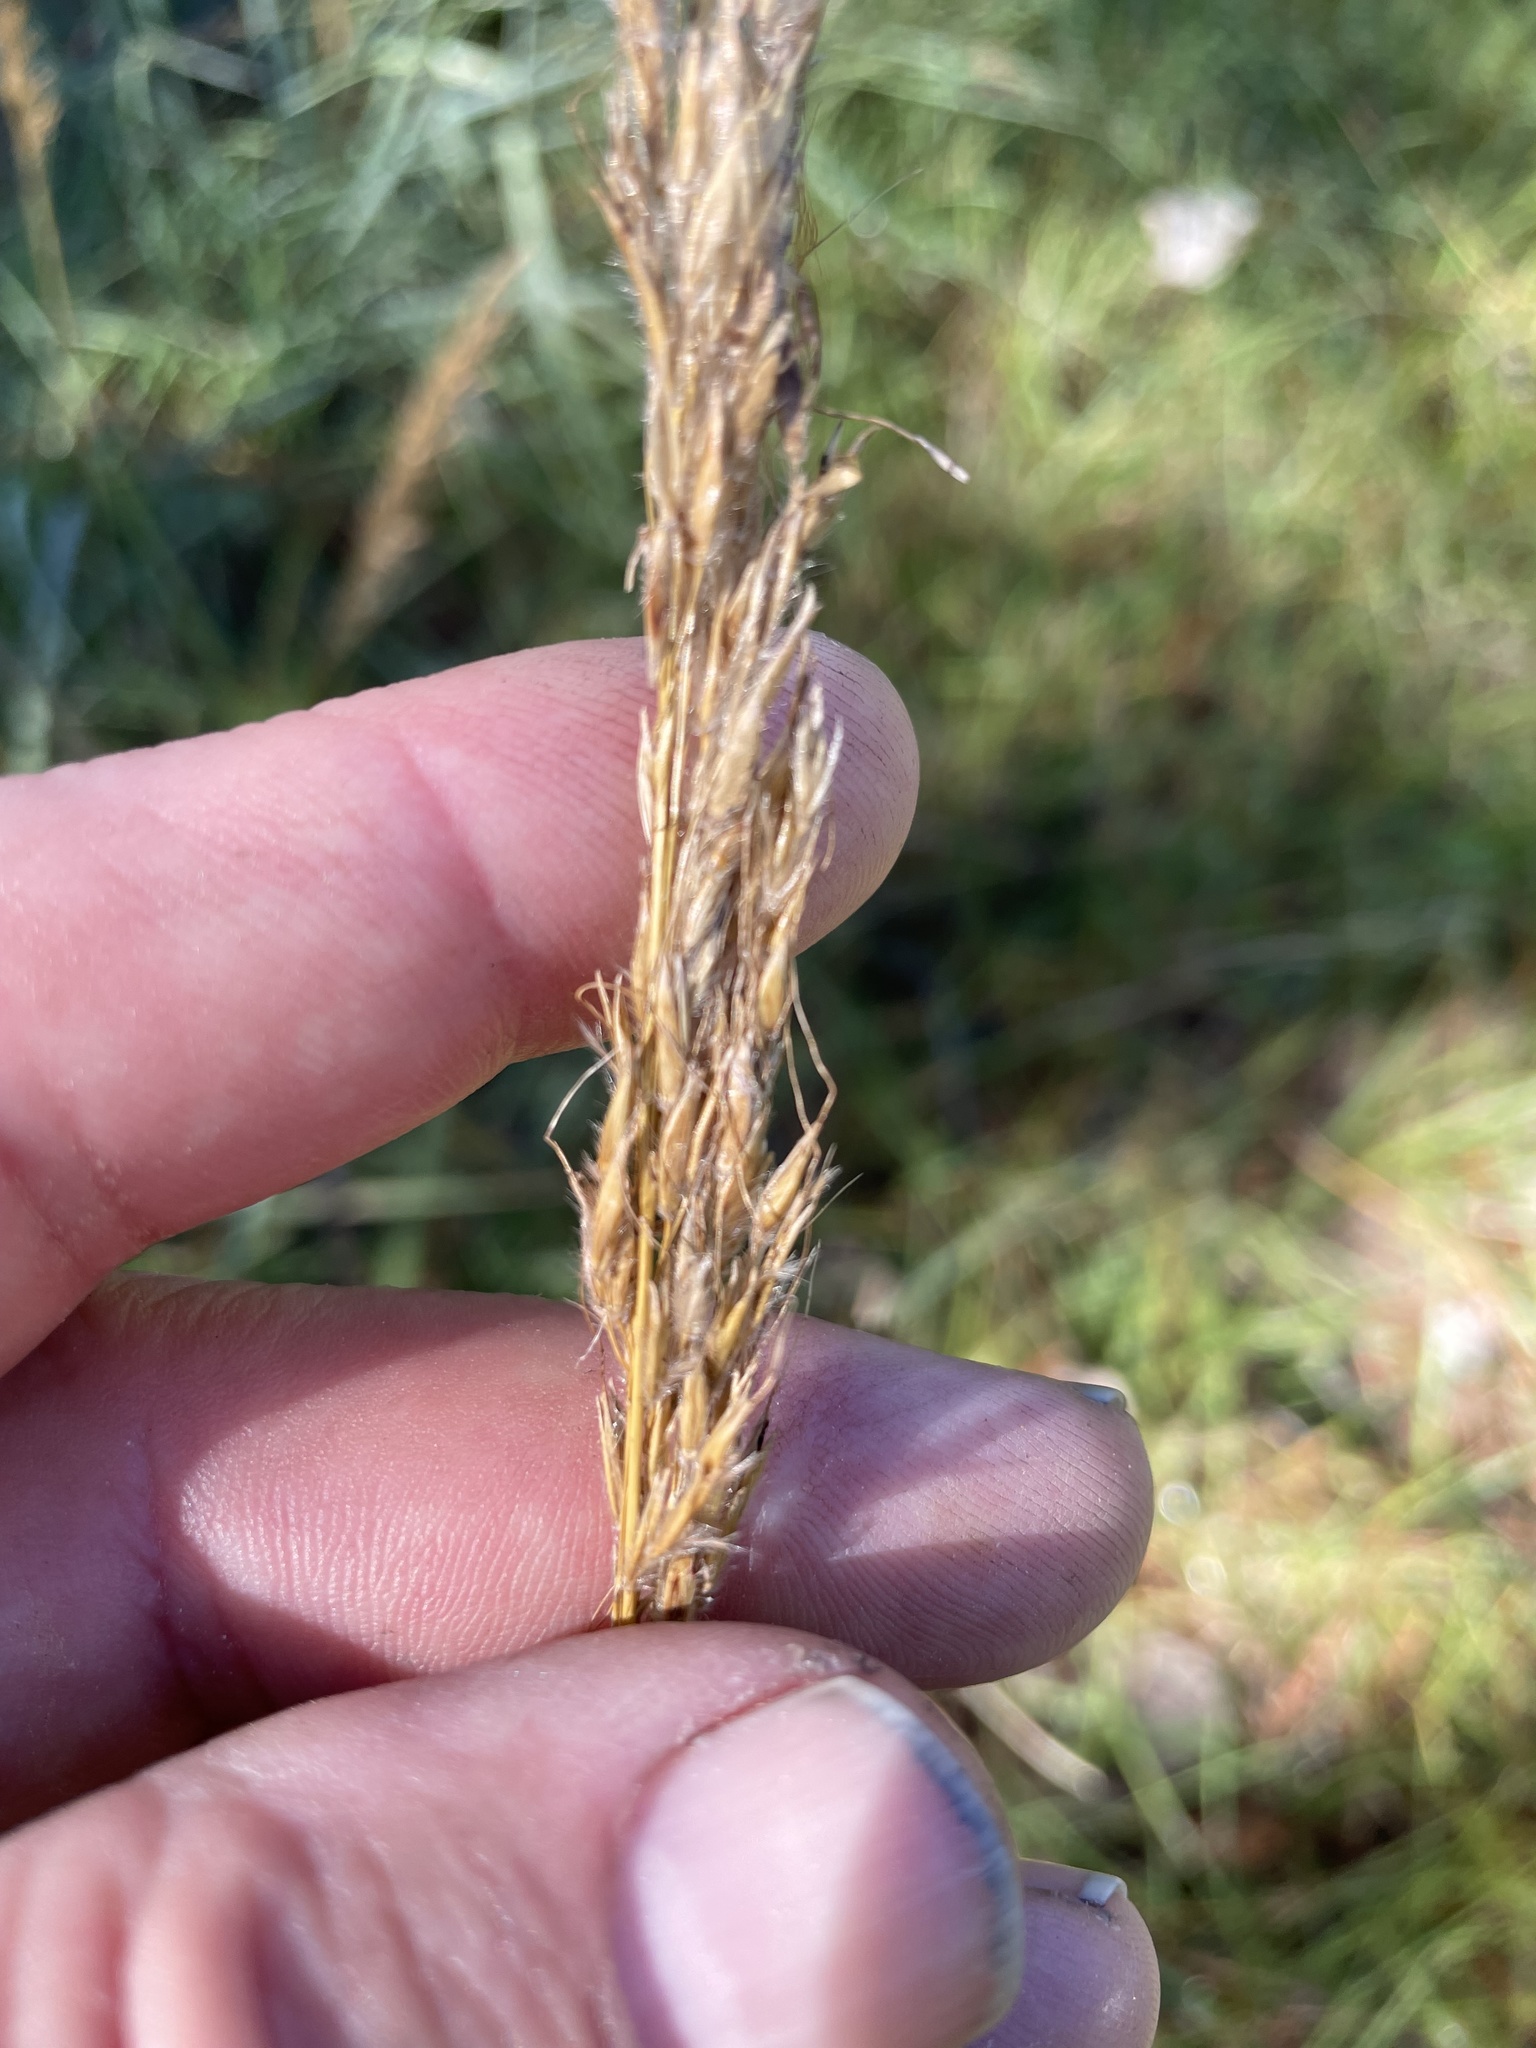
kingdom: Plantae
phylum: Tracheophyta
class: Liliopsida
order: Poales
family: Poaceae
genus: Sorghastrum
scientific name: Sorghastrum nutans
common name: Indian grass
